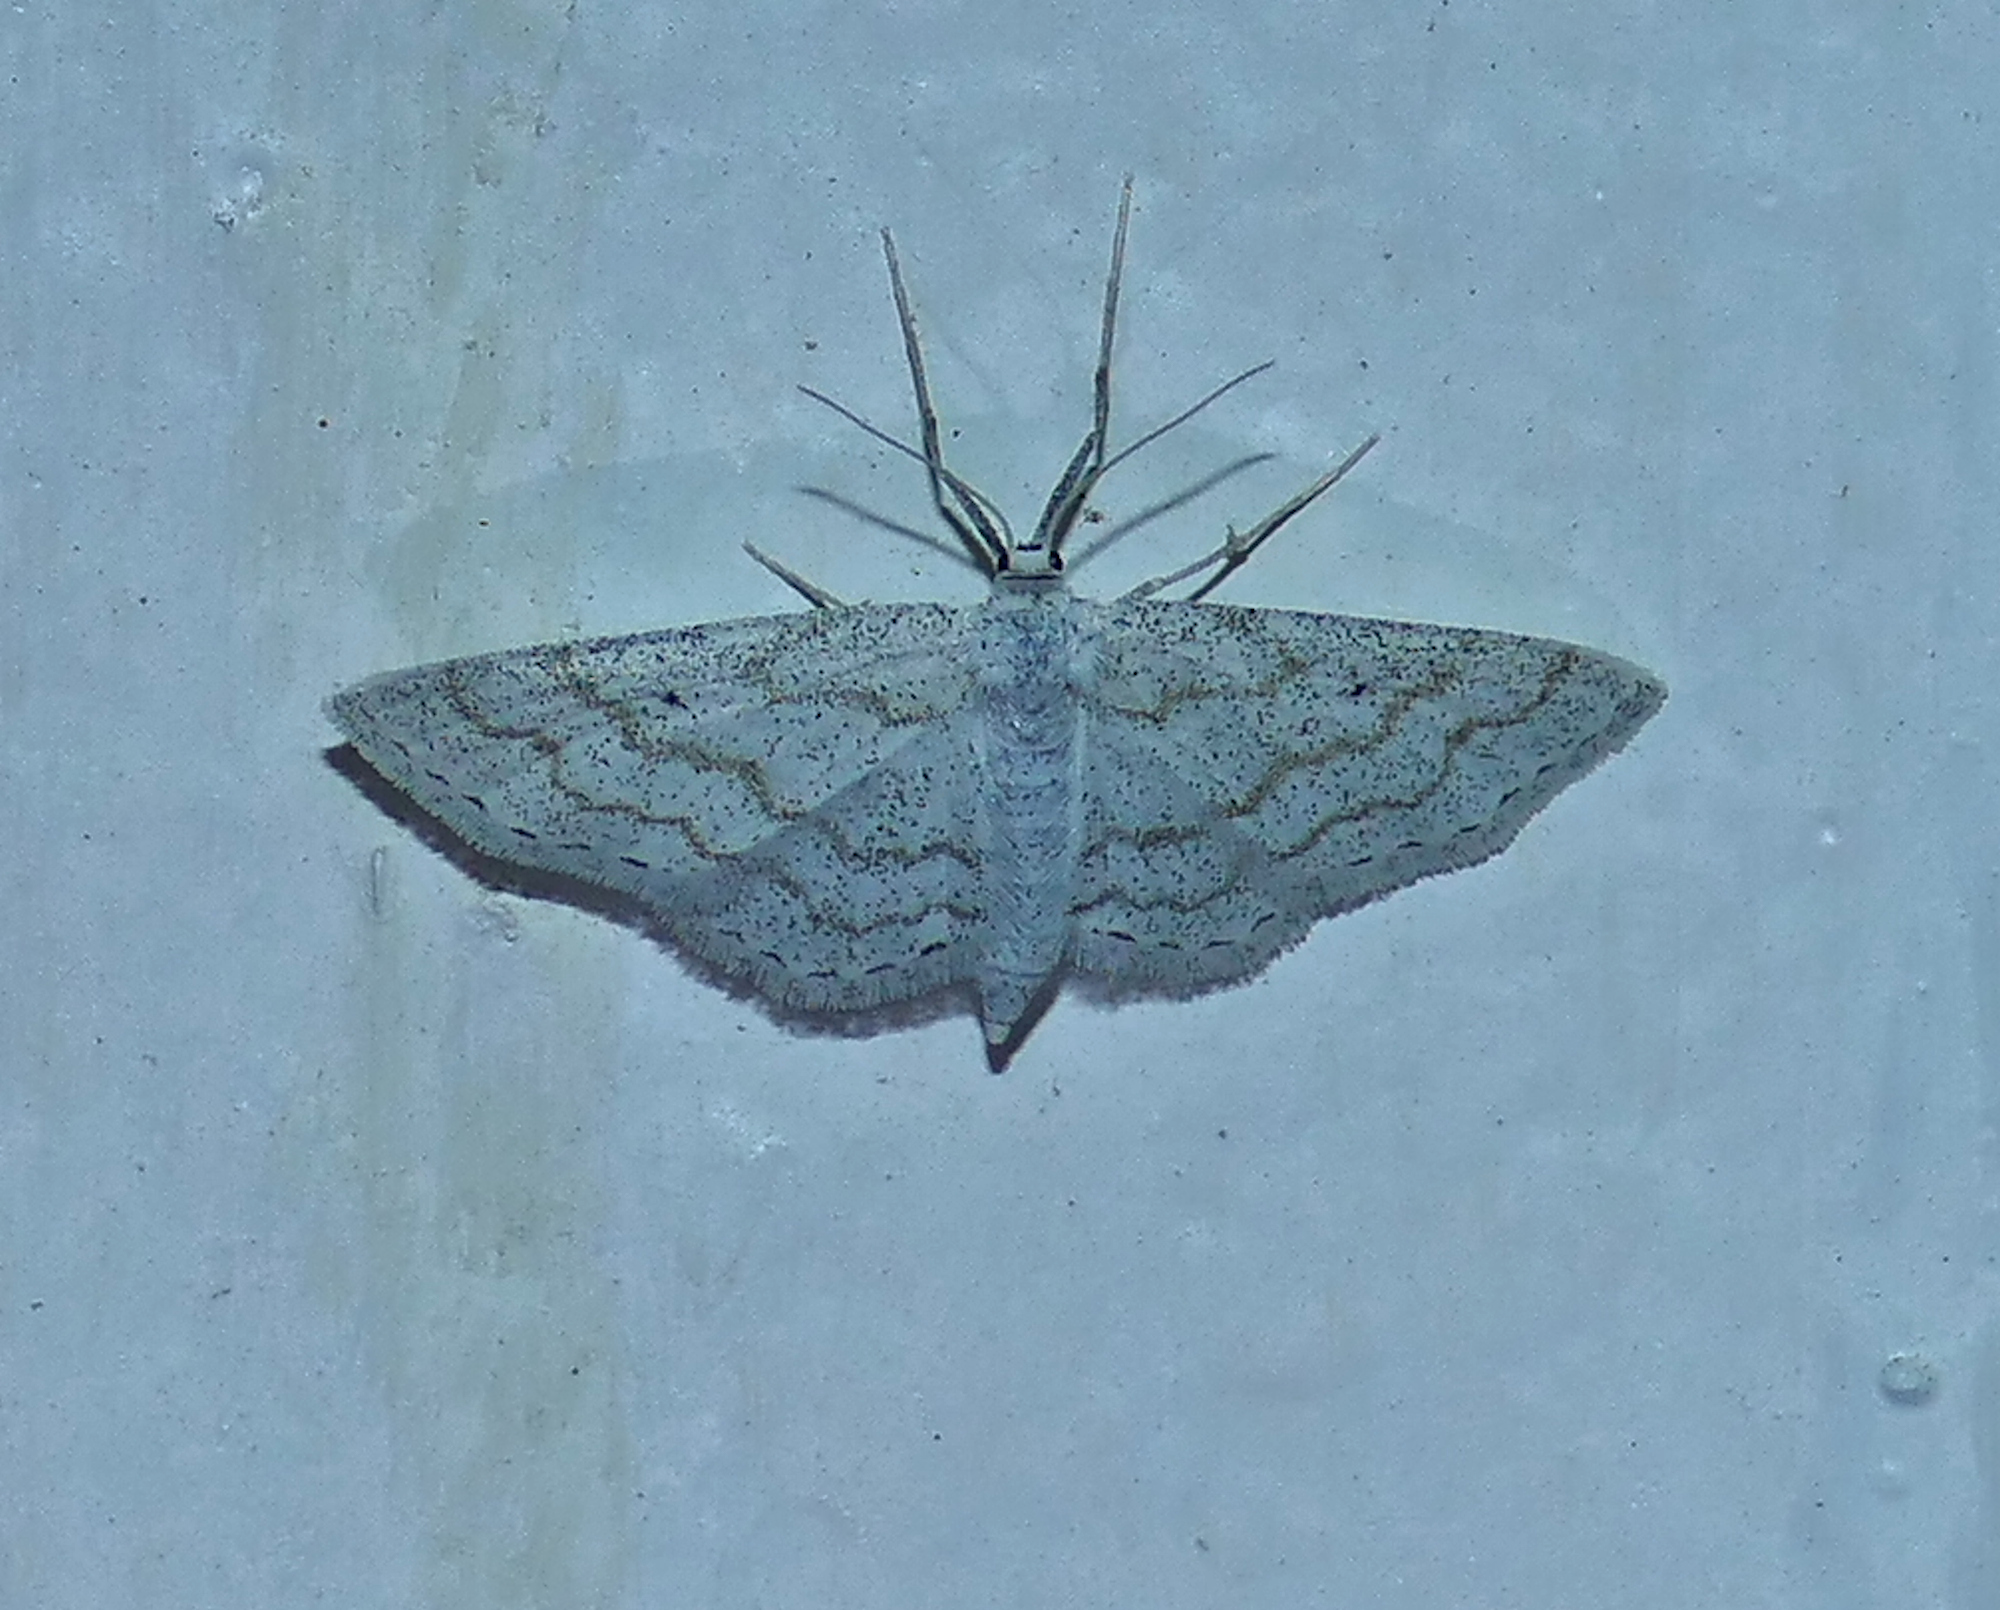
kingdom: Animalia
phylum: Arthropoda
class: Insecta
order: Lepidoptera
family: Geometridae
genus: Lobocleta
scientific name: Lobocleta peralbata
